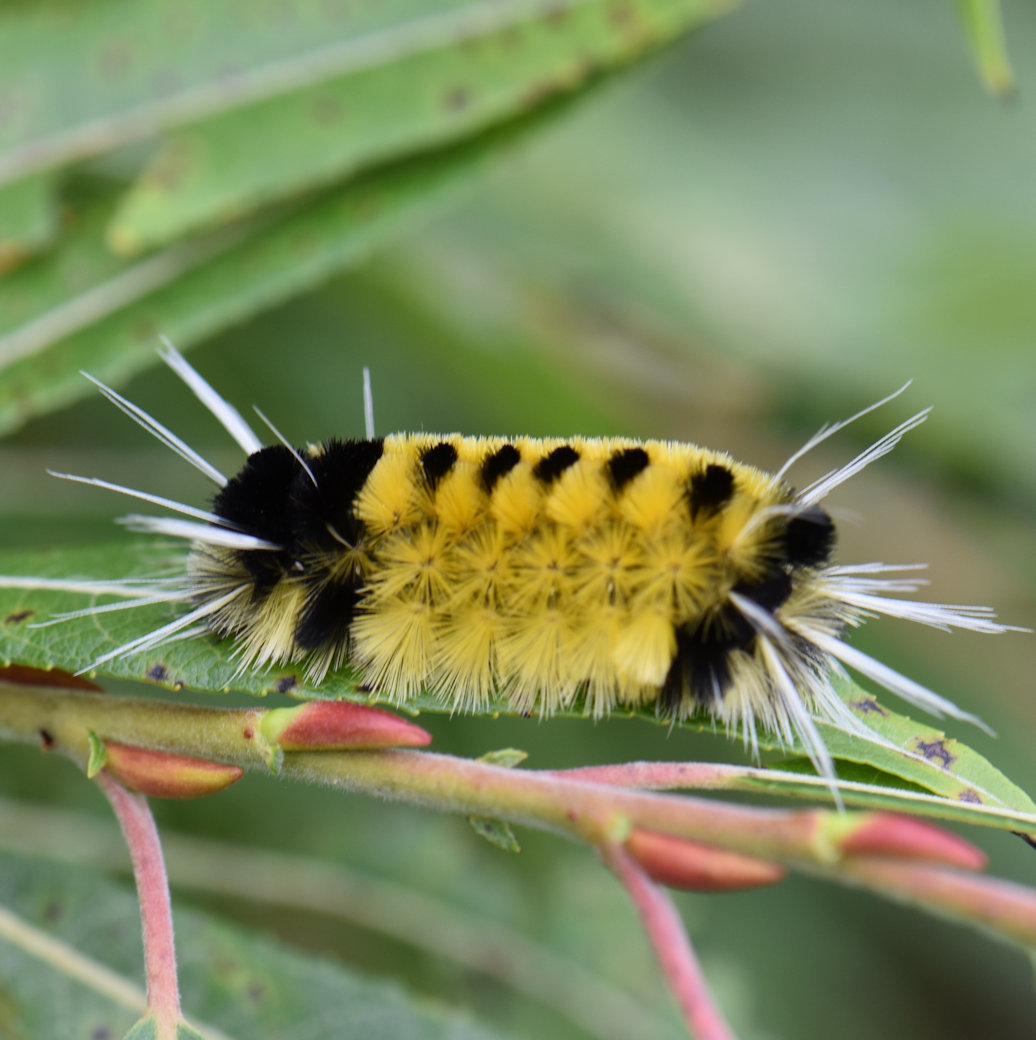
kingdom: Animalia
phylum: Arthropoda
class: Insecta
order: Lepidoptera
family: Erebidae
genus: Lophocampa
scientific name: Lophocampa maculata
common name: Spotted tussock moth
